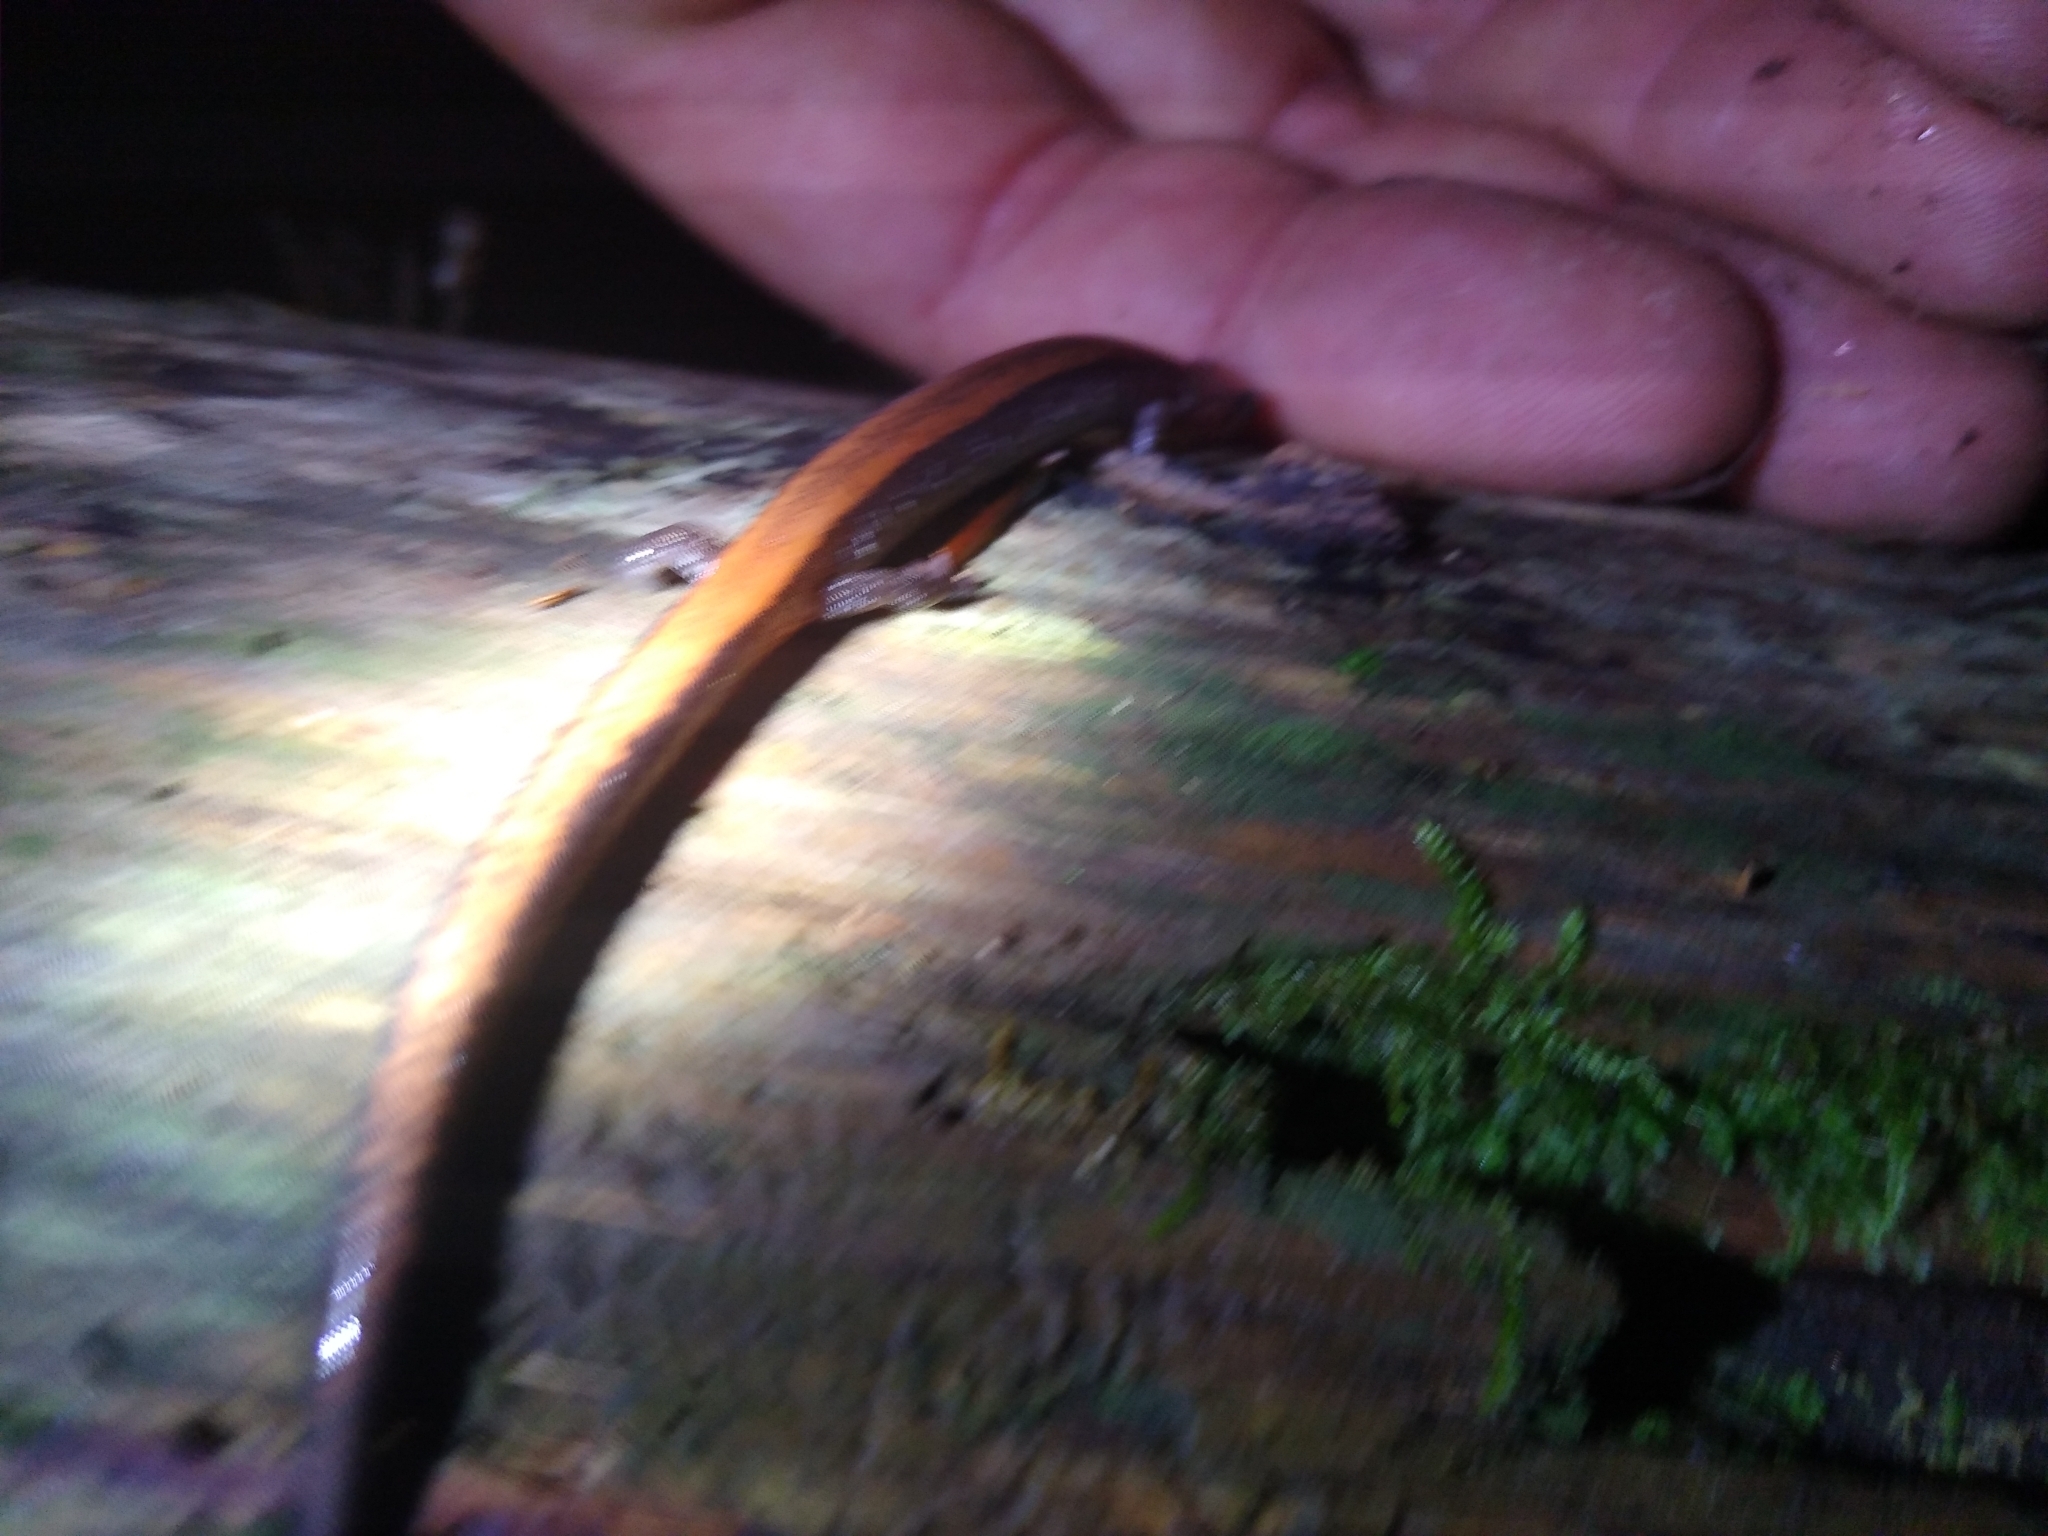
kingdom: Animalia
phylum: Chordata
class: Amphibia
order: Caudata
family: Plethodontidae
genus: Plethodon
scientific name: Plethodon cinereus
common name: Redback salamander
